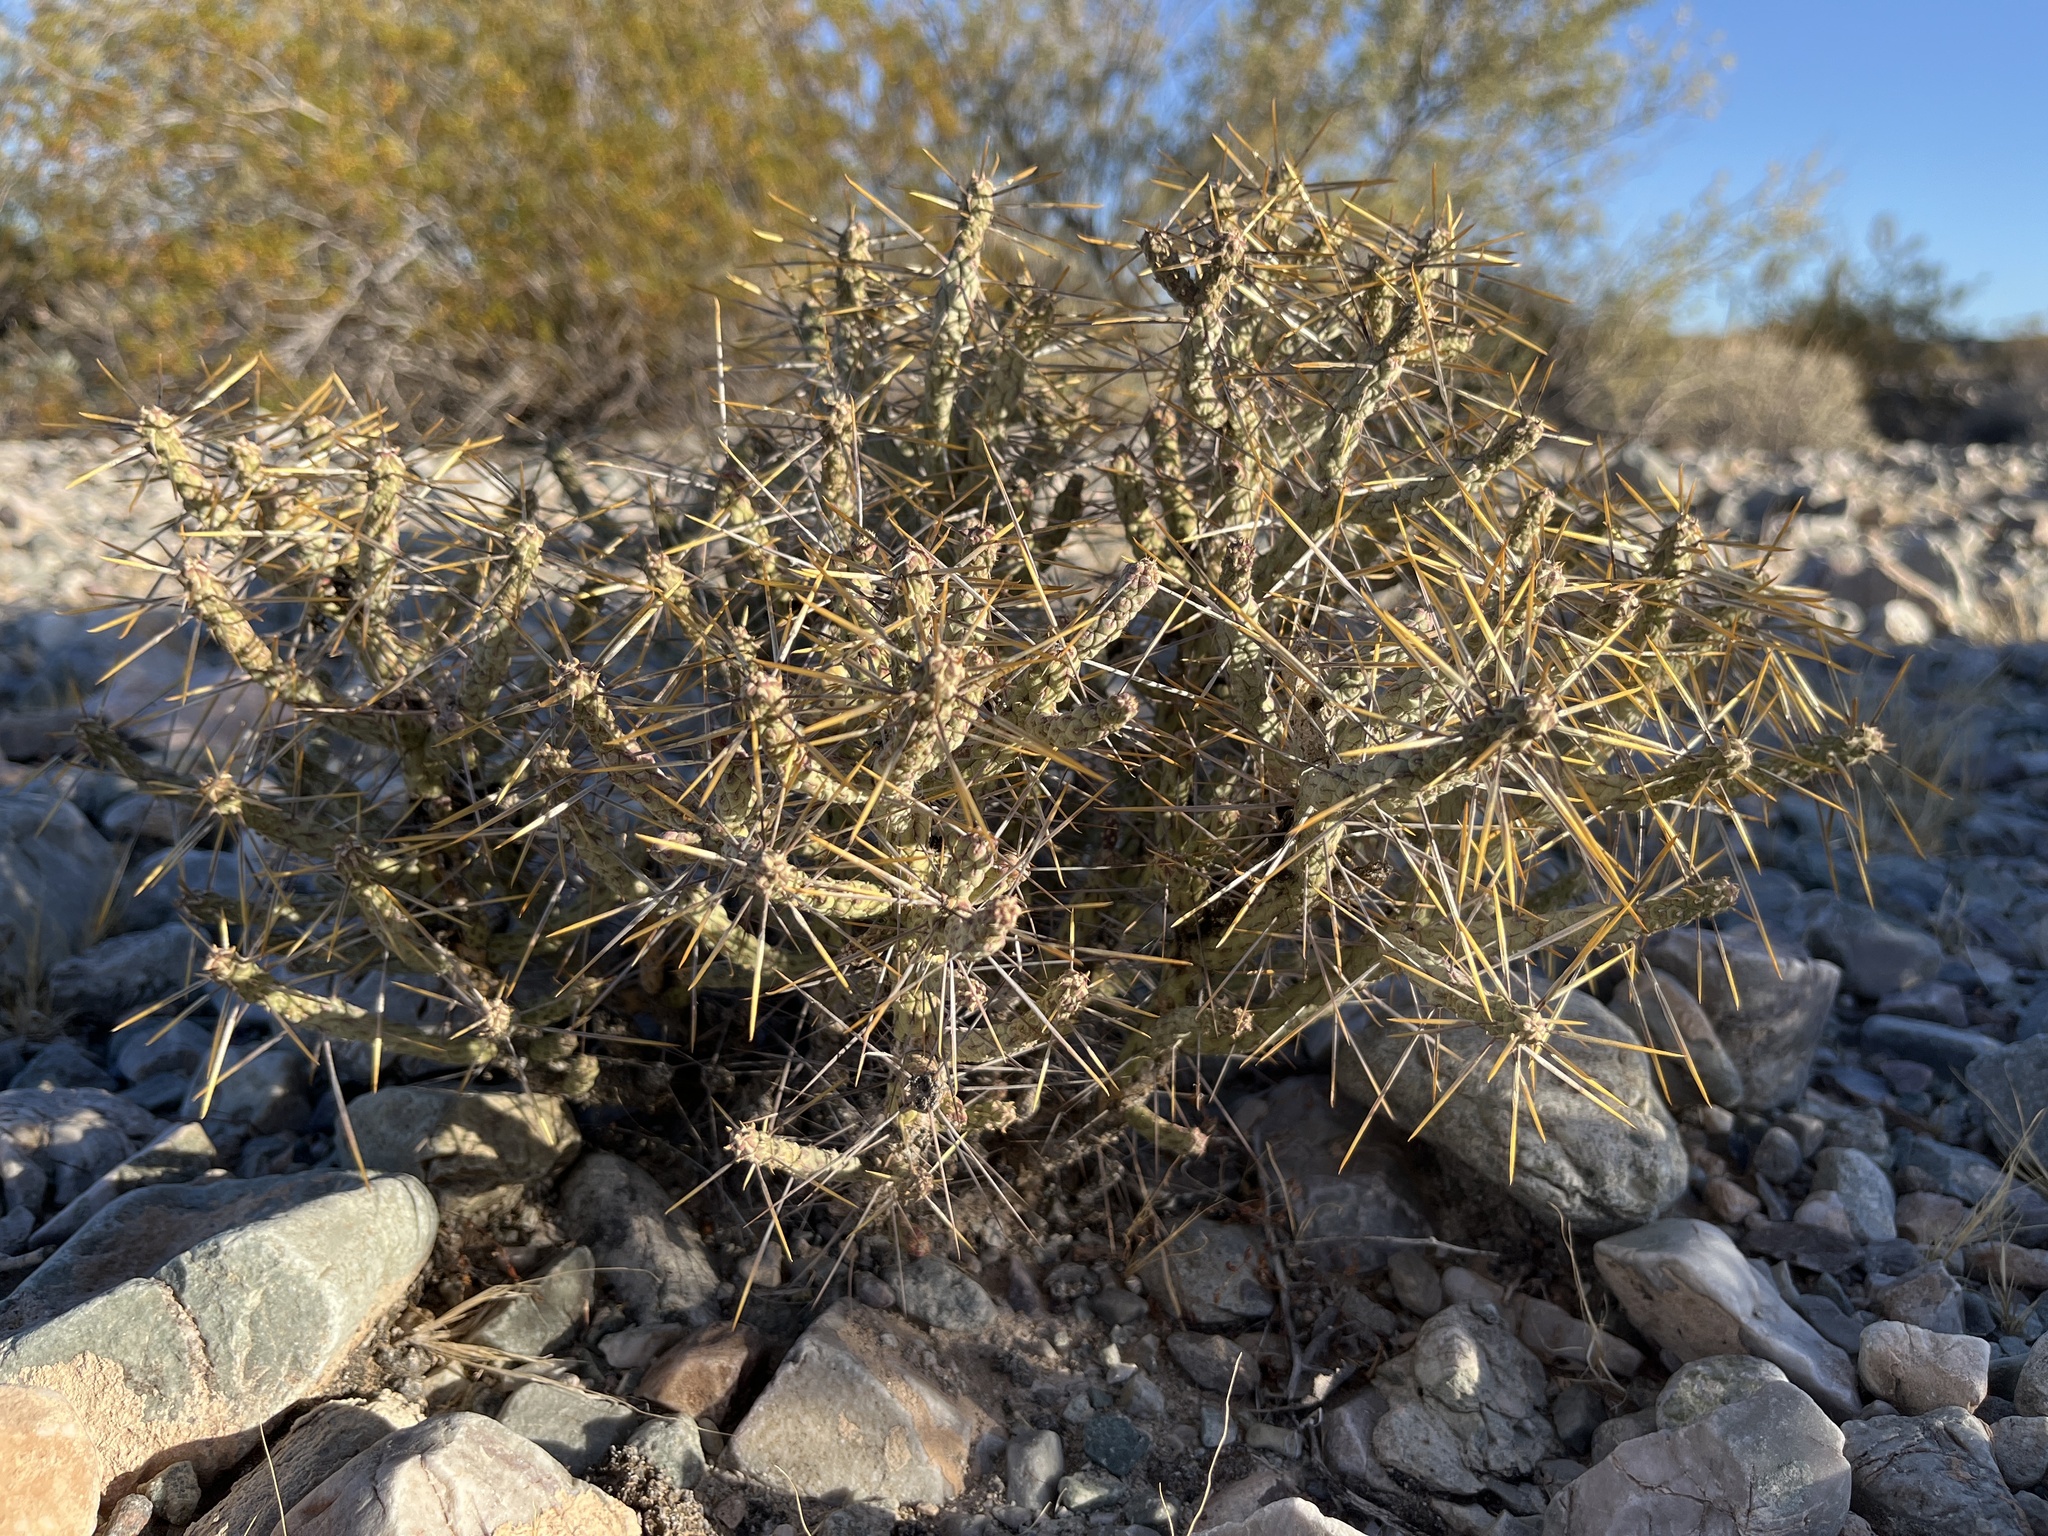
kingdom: Plantae
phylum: Tracheophyta
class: Magnoliopsida
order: Caryophyllales
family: Cactaceae
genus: Cylindropuntia
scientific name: Cylindropuntia ramosissima
